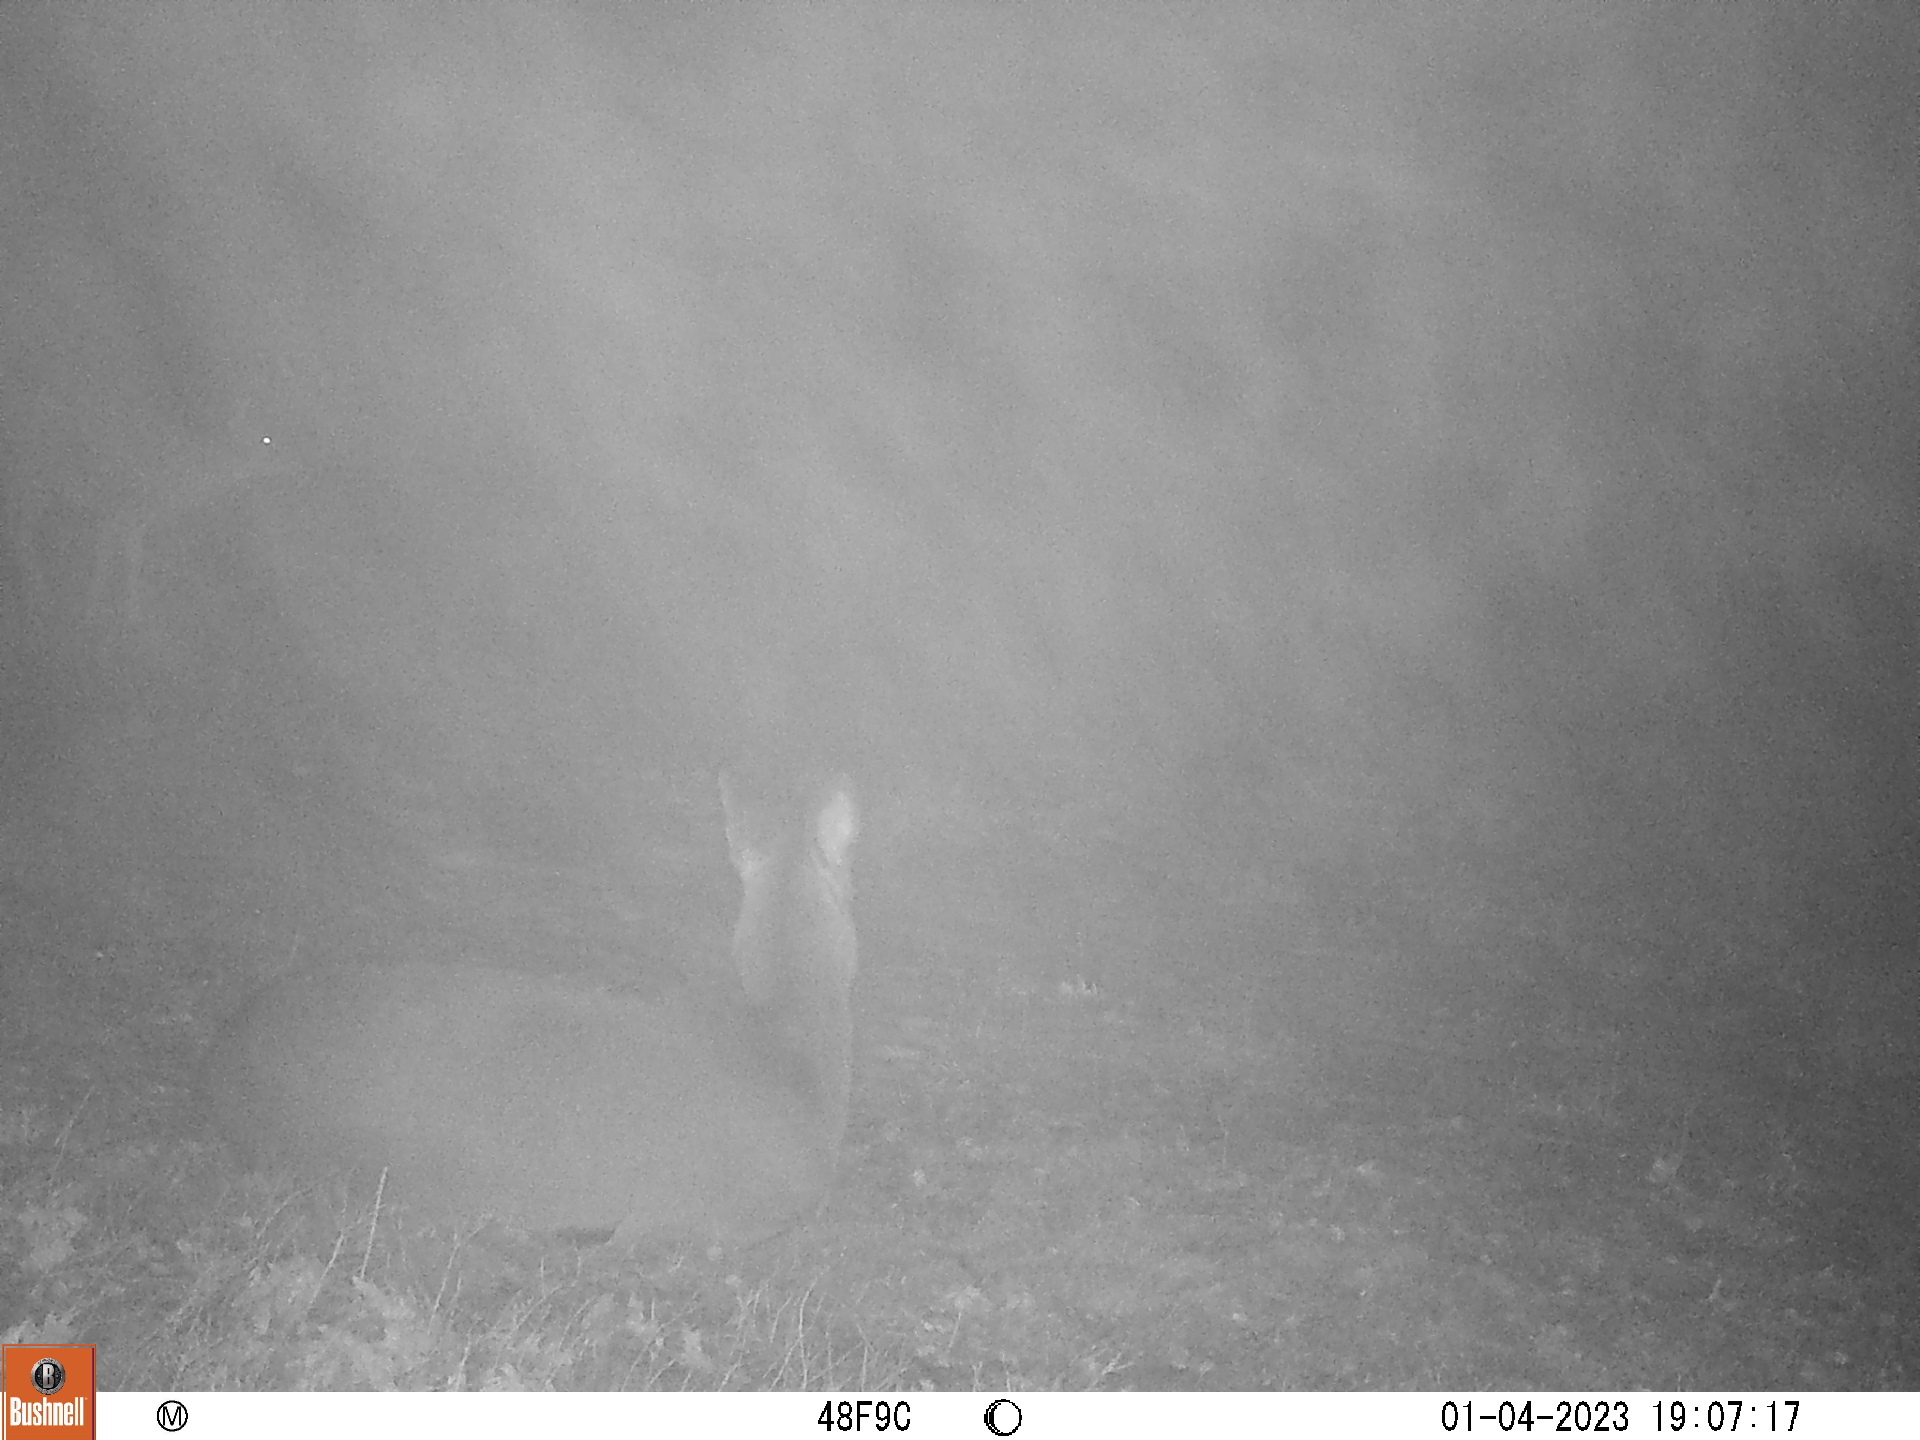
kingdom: Animalia
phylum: Chordata
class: Mammalia
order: Artiodactyla
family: Cervidae
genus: Odocoileus
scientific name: Odocoileus virginianus
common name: White-tailed deer
